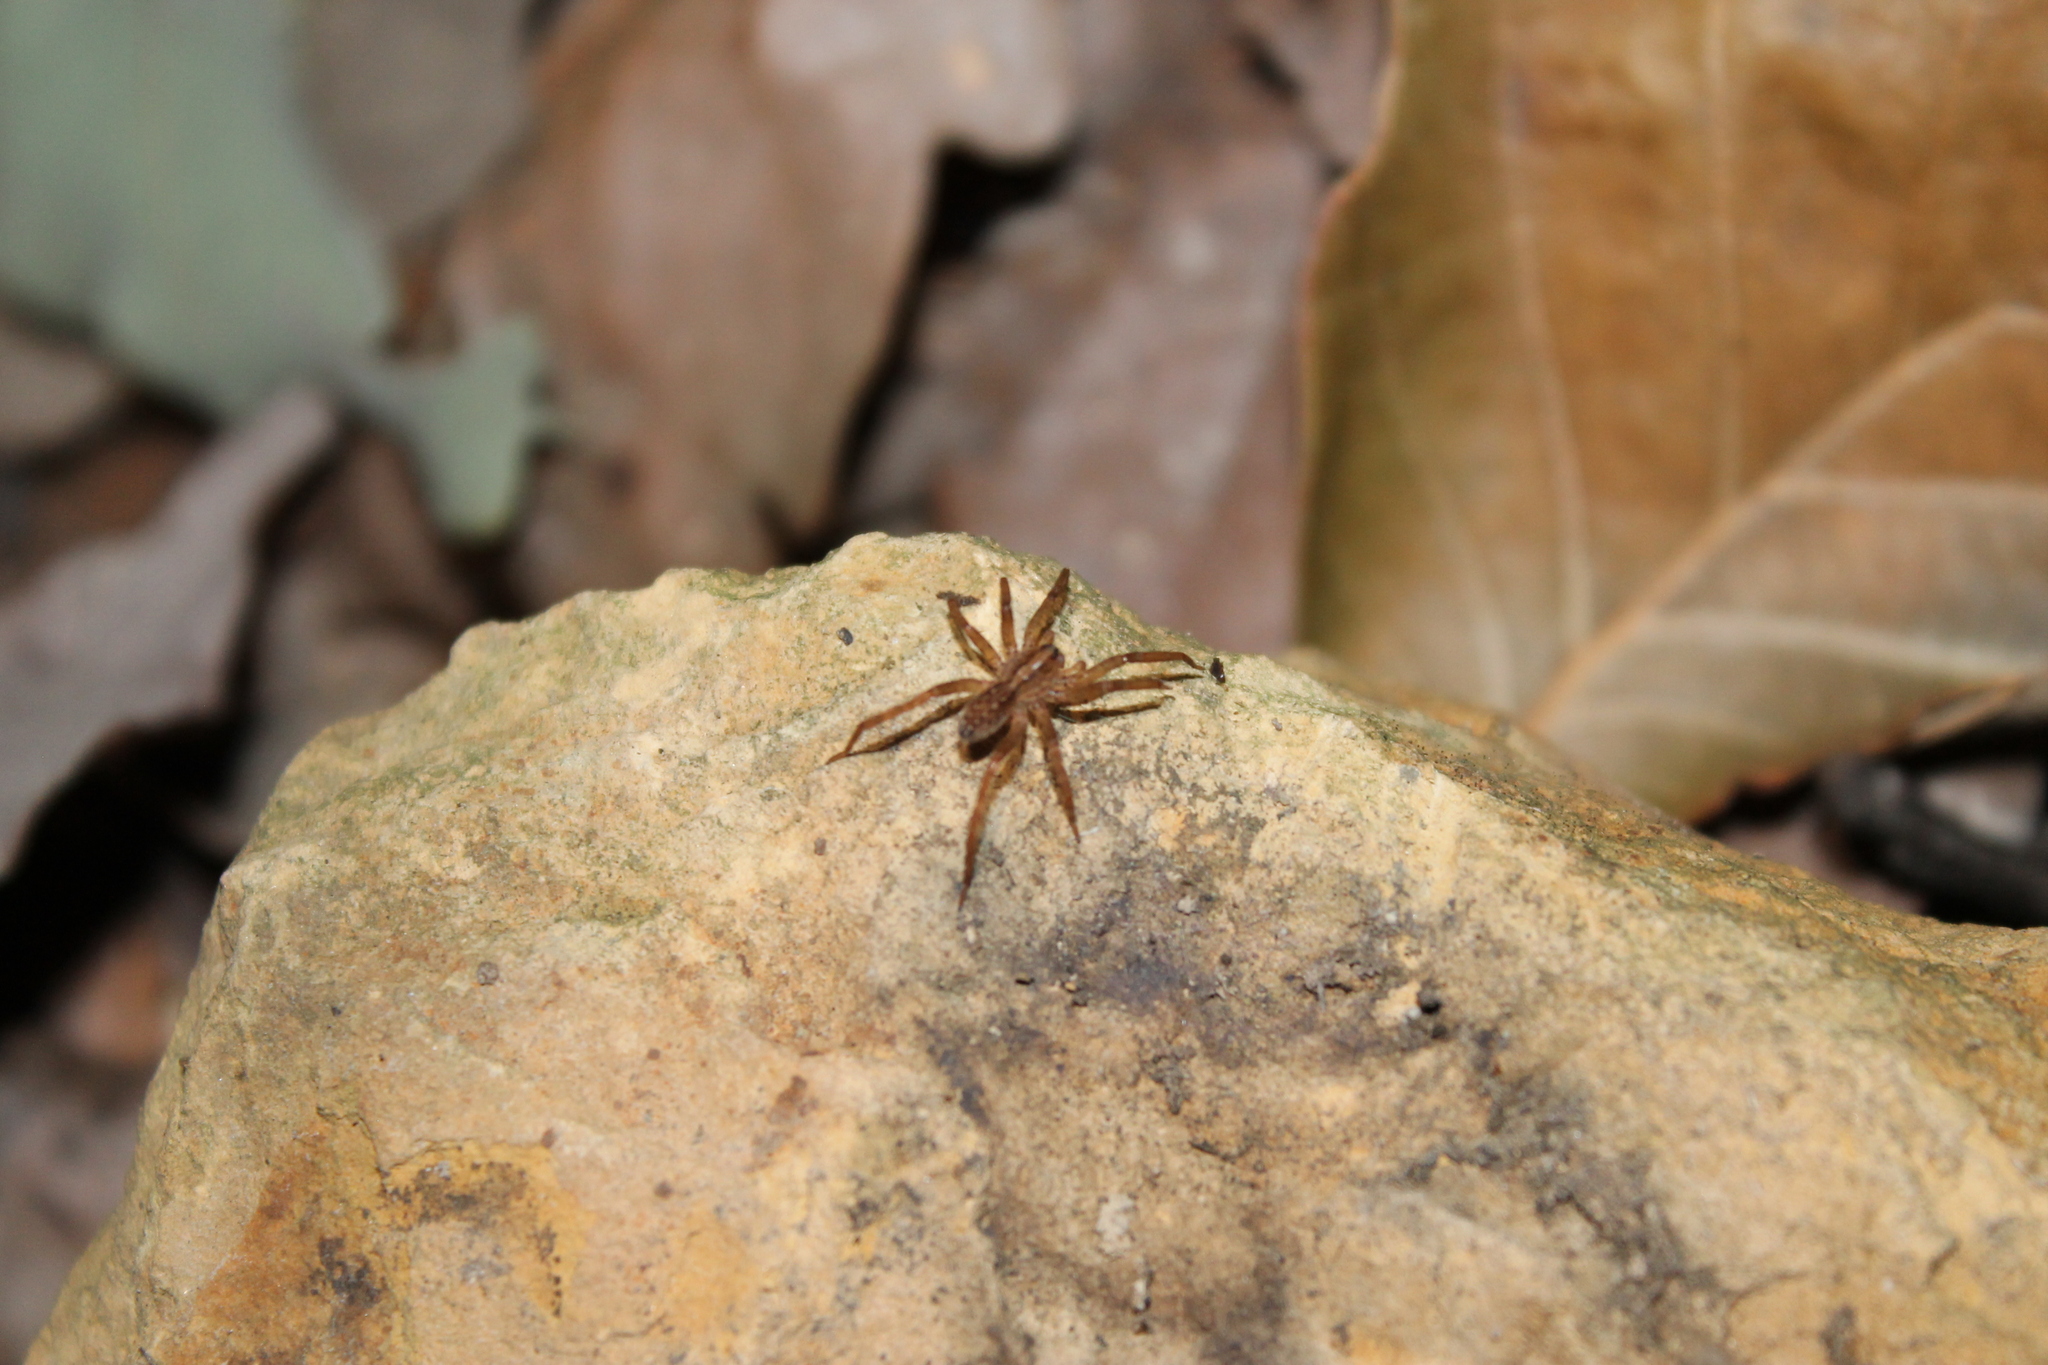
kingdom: Animalia
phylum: Arthropoda
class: Arachnida
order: Araneae
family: Ctenidae
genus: Anahita
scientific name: Anahita punctulata
